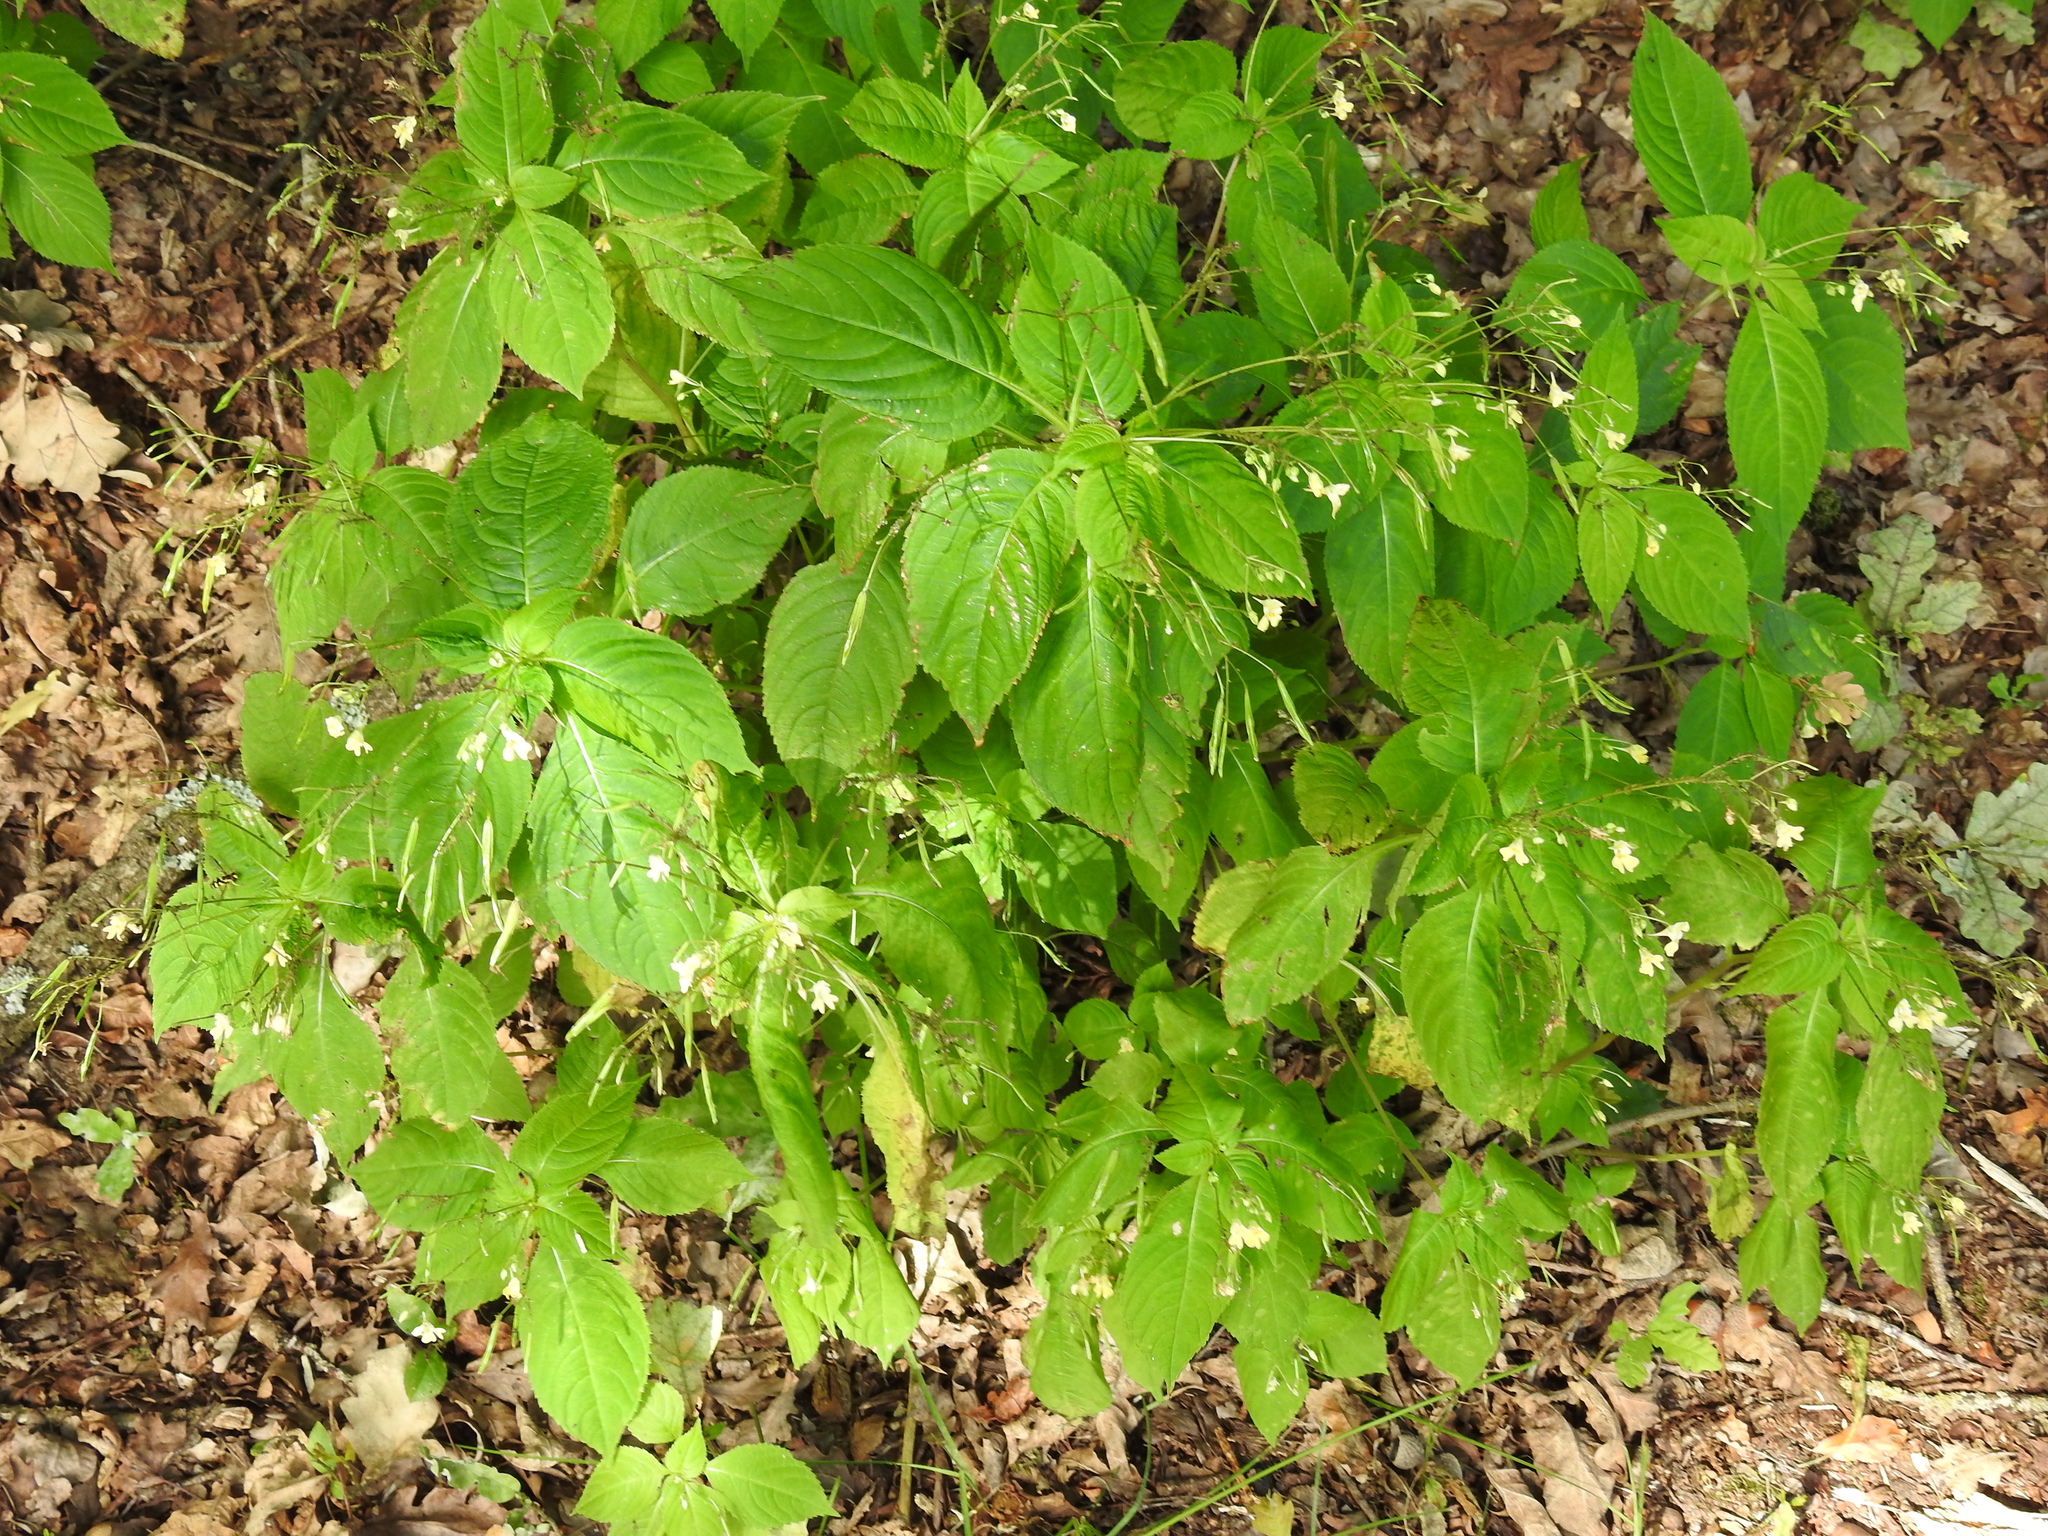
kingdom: Plantae
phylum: Tracheophyta
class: Magnoliopsida
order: Ericales
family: Balsaminaceae
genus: Impatiens
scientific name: Impatiens parviflora
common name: Small balsam
